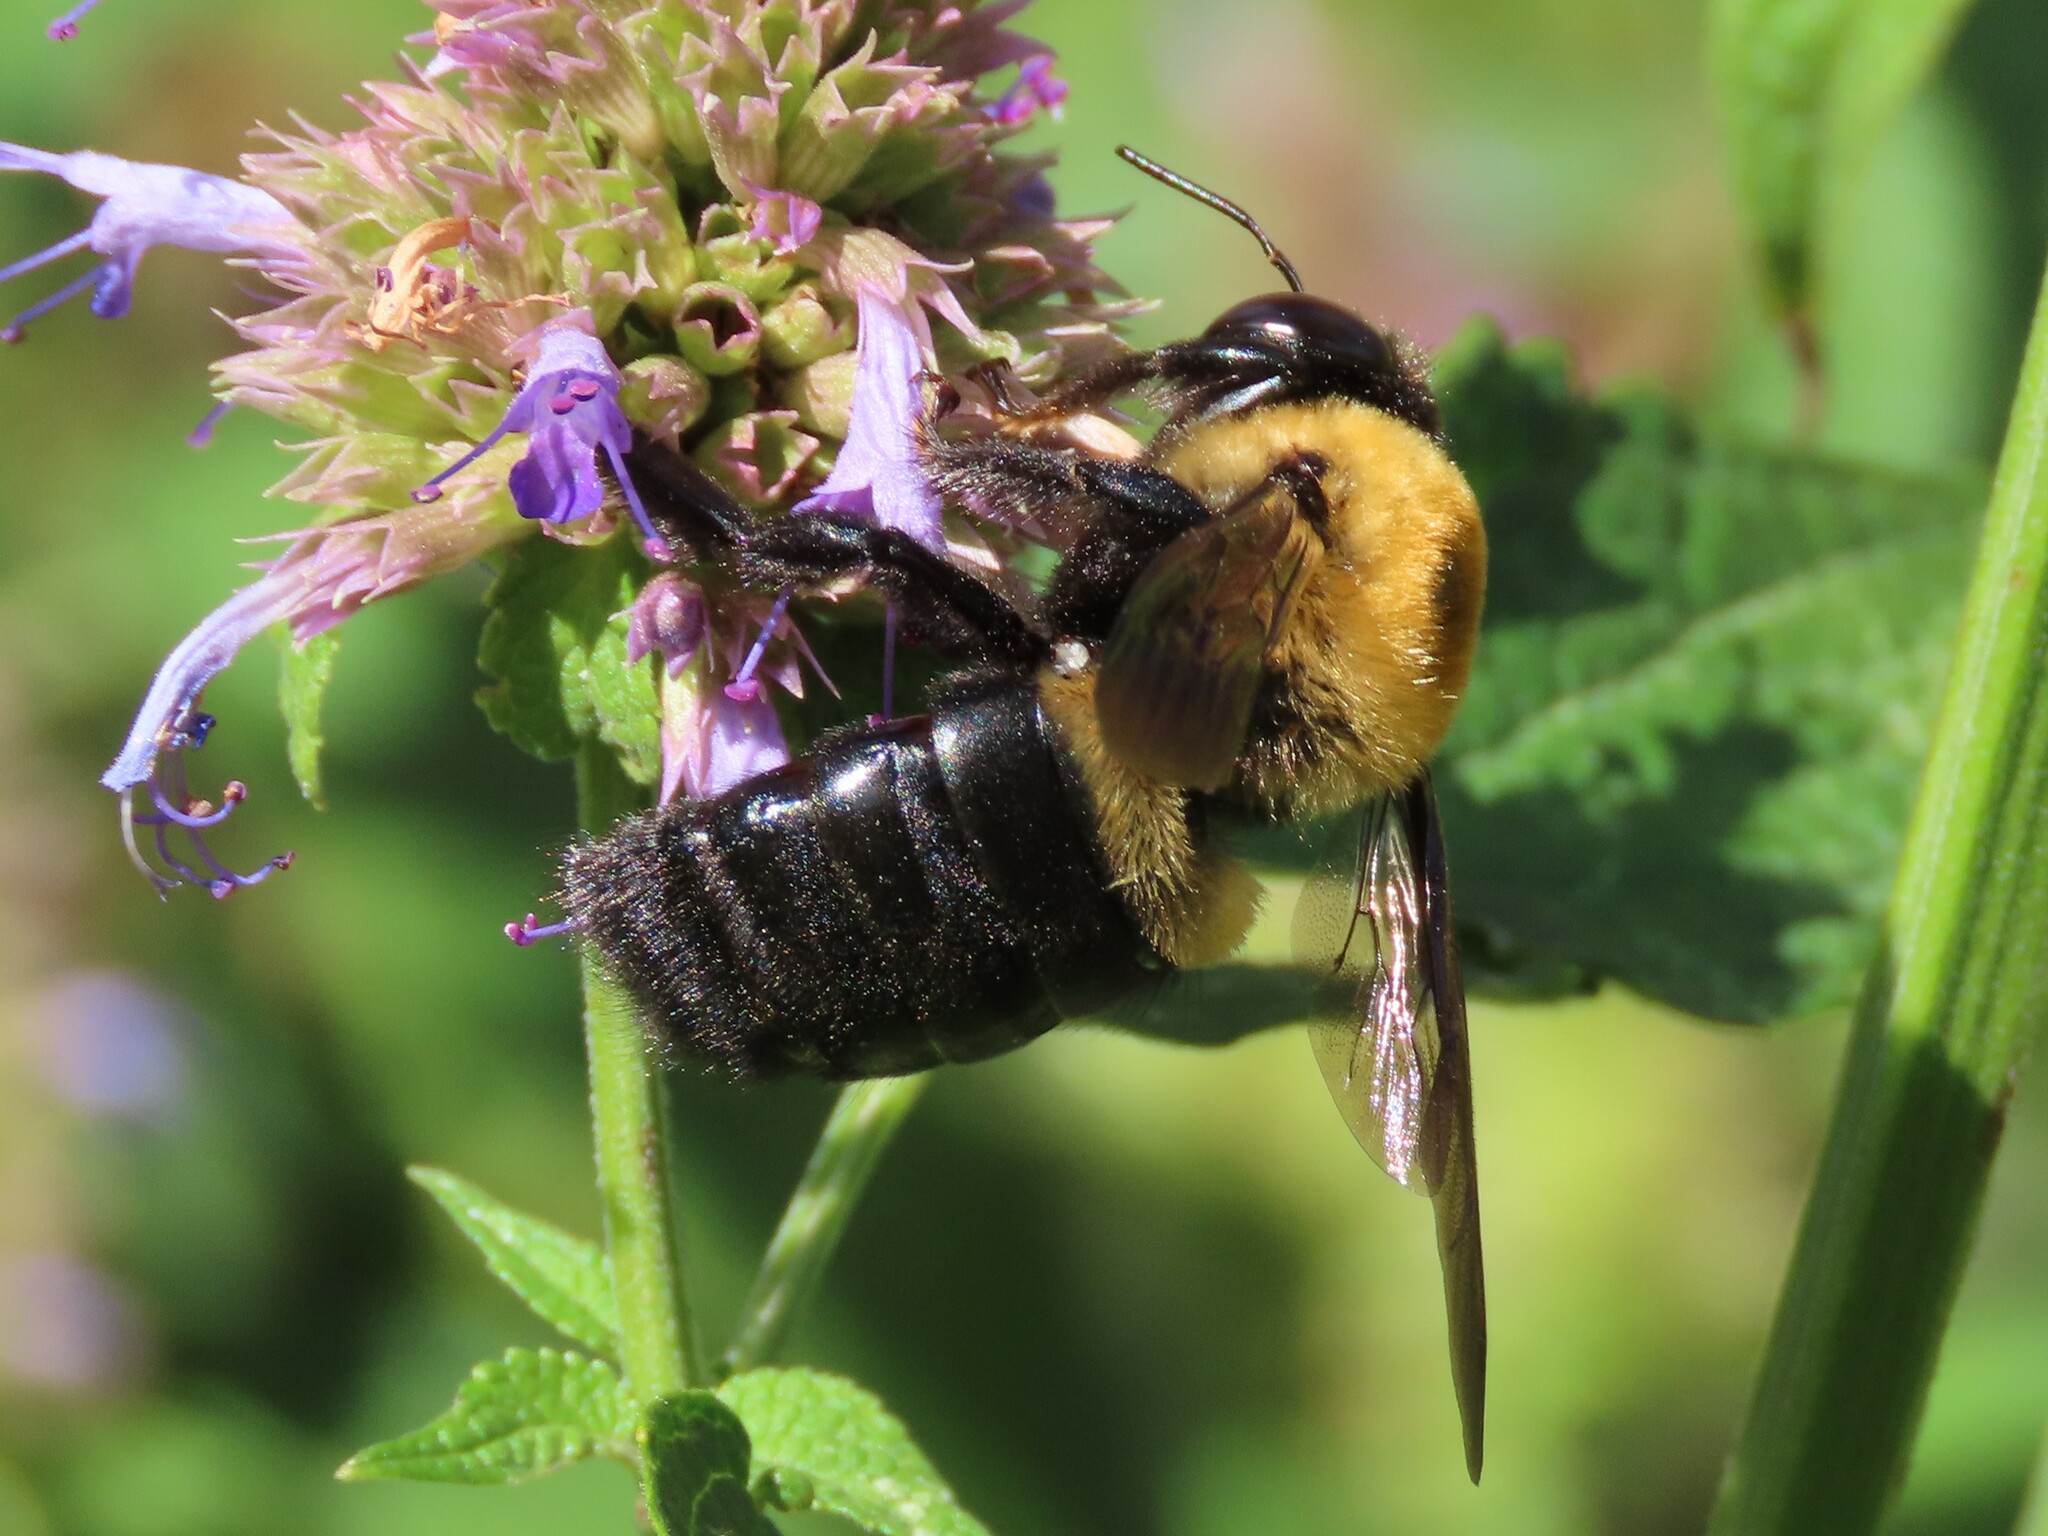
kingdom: Animalia
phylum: Arthropoda
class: Insecta
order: Hymenoptera
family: Apidae
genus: Xylocopa
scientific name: Xylocopa virginica
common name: Carpenter bee
